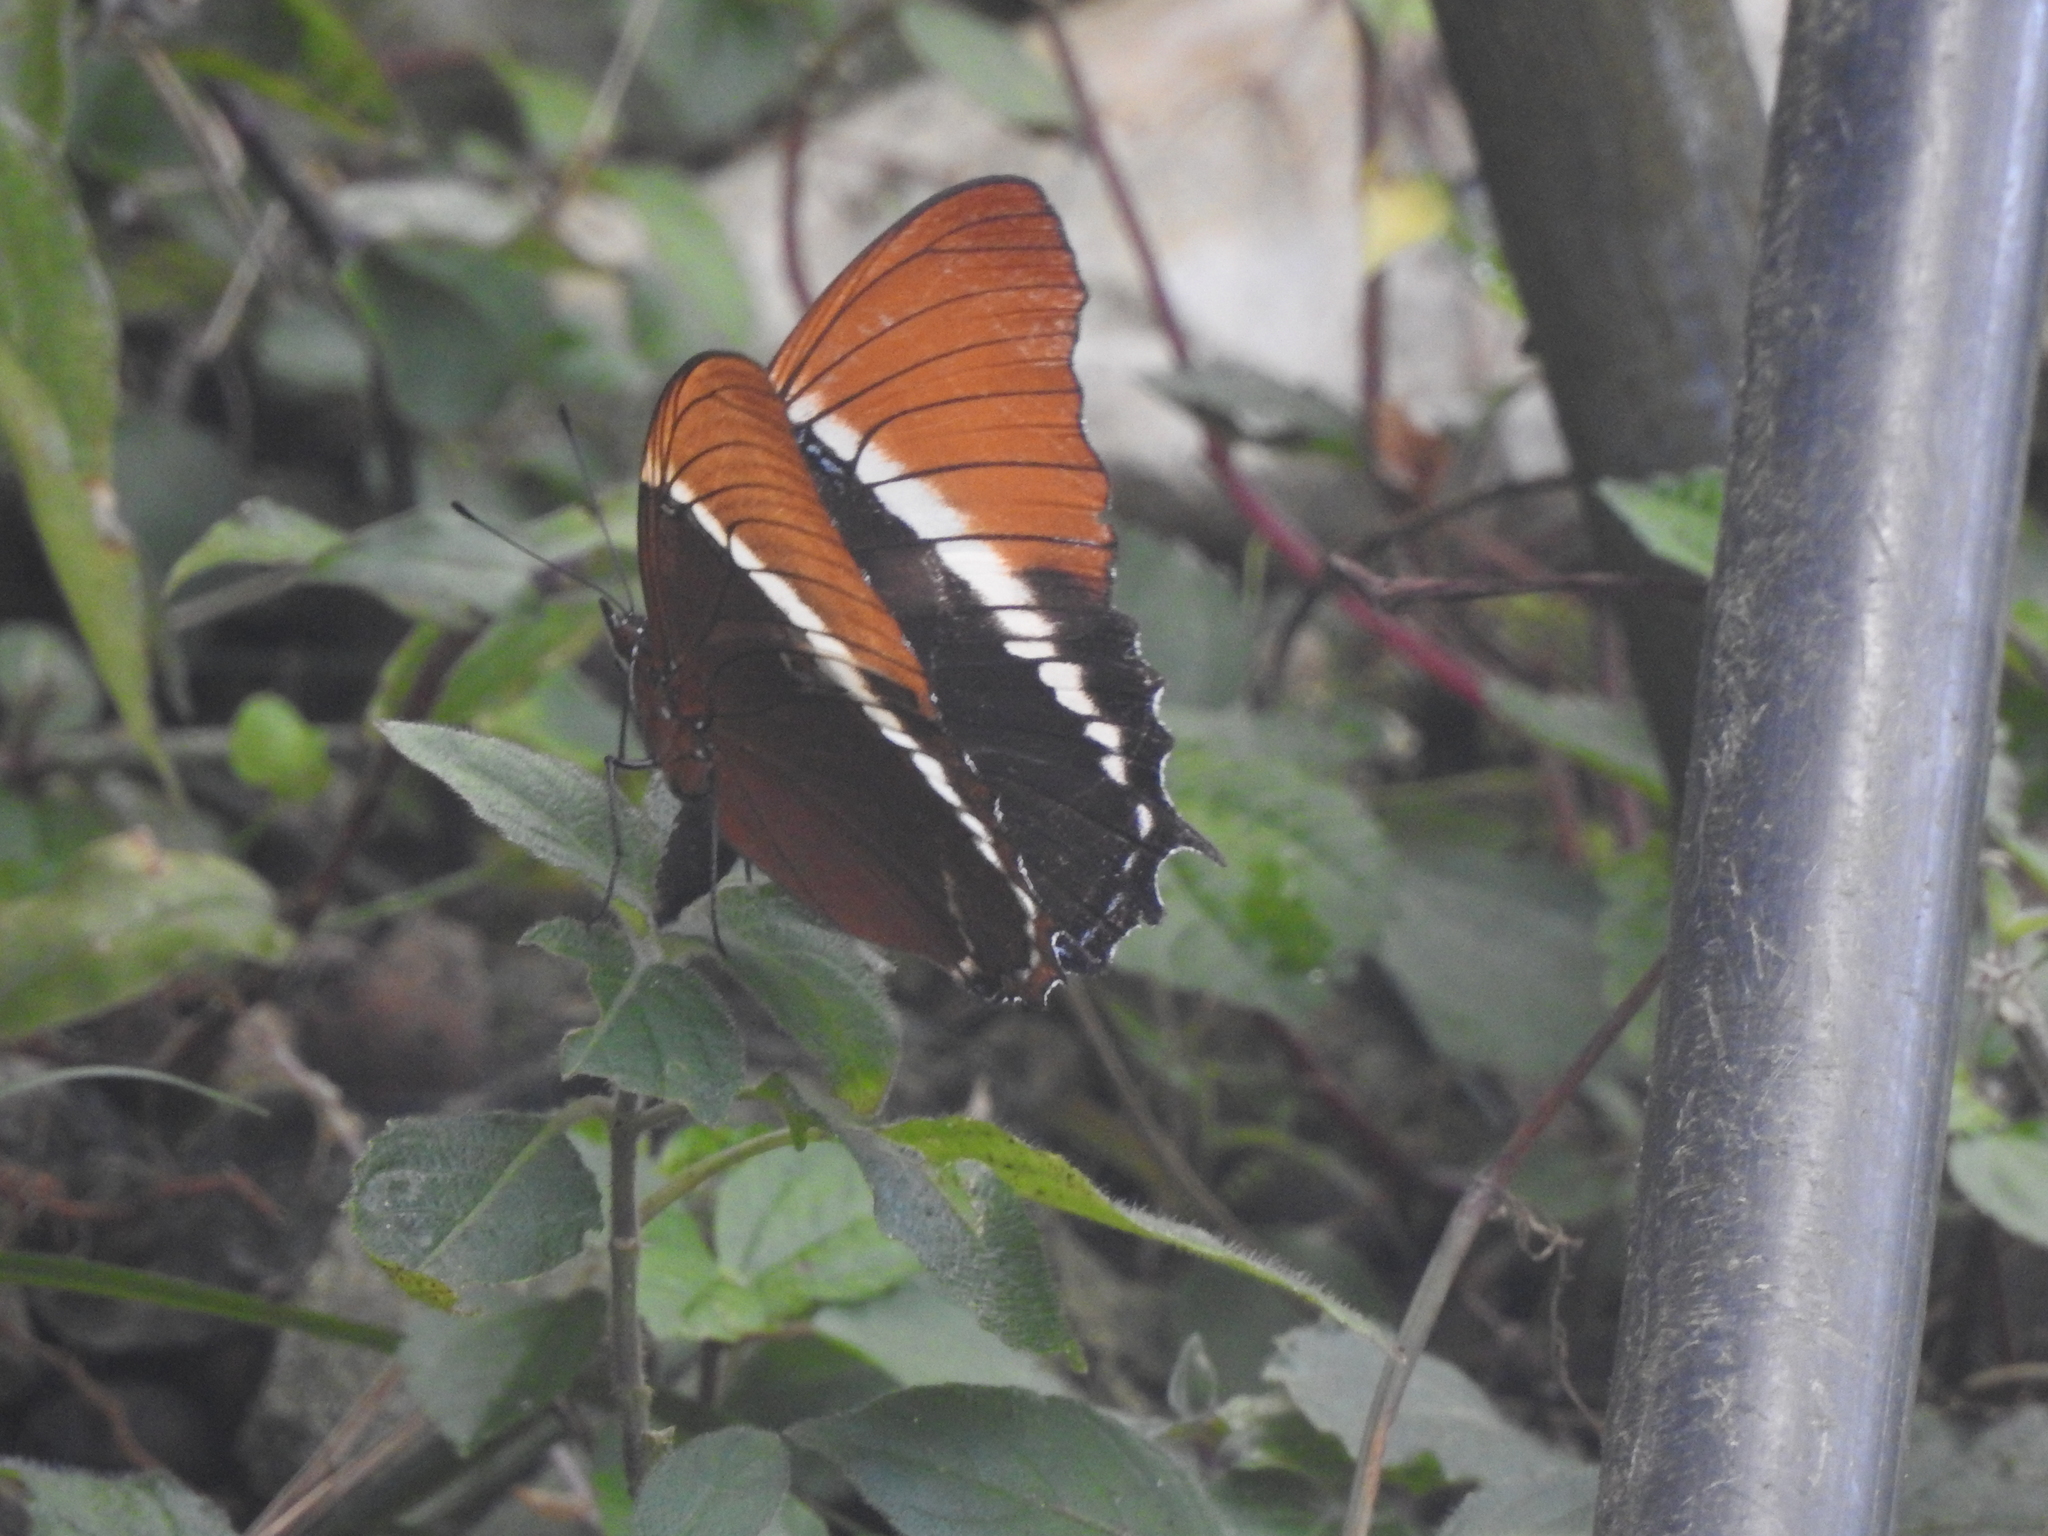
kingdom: Animalia
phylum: Arthropoda
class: Insecta
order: Lepidoptera
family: Nymphalidae
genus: Siproeta
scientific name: Siproeta epaphus
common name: Rusty-tipped page
